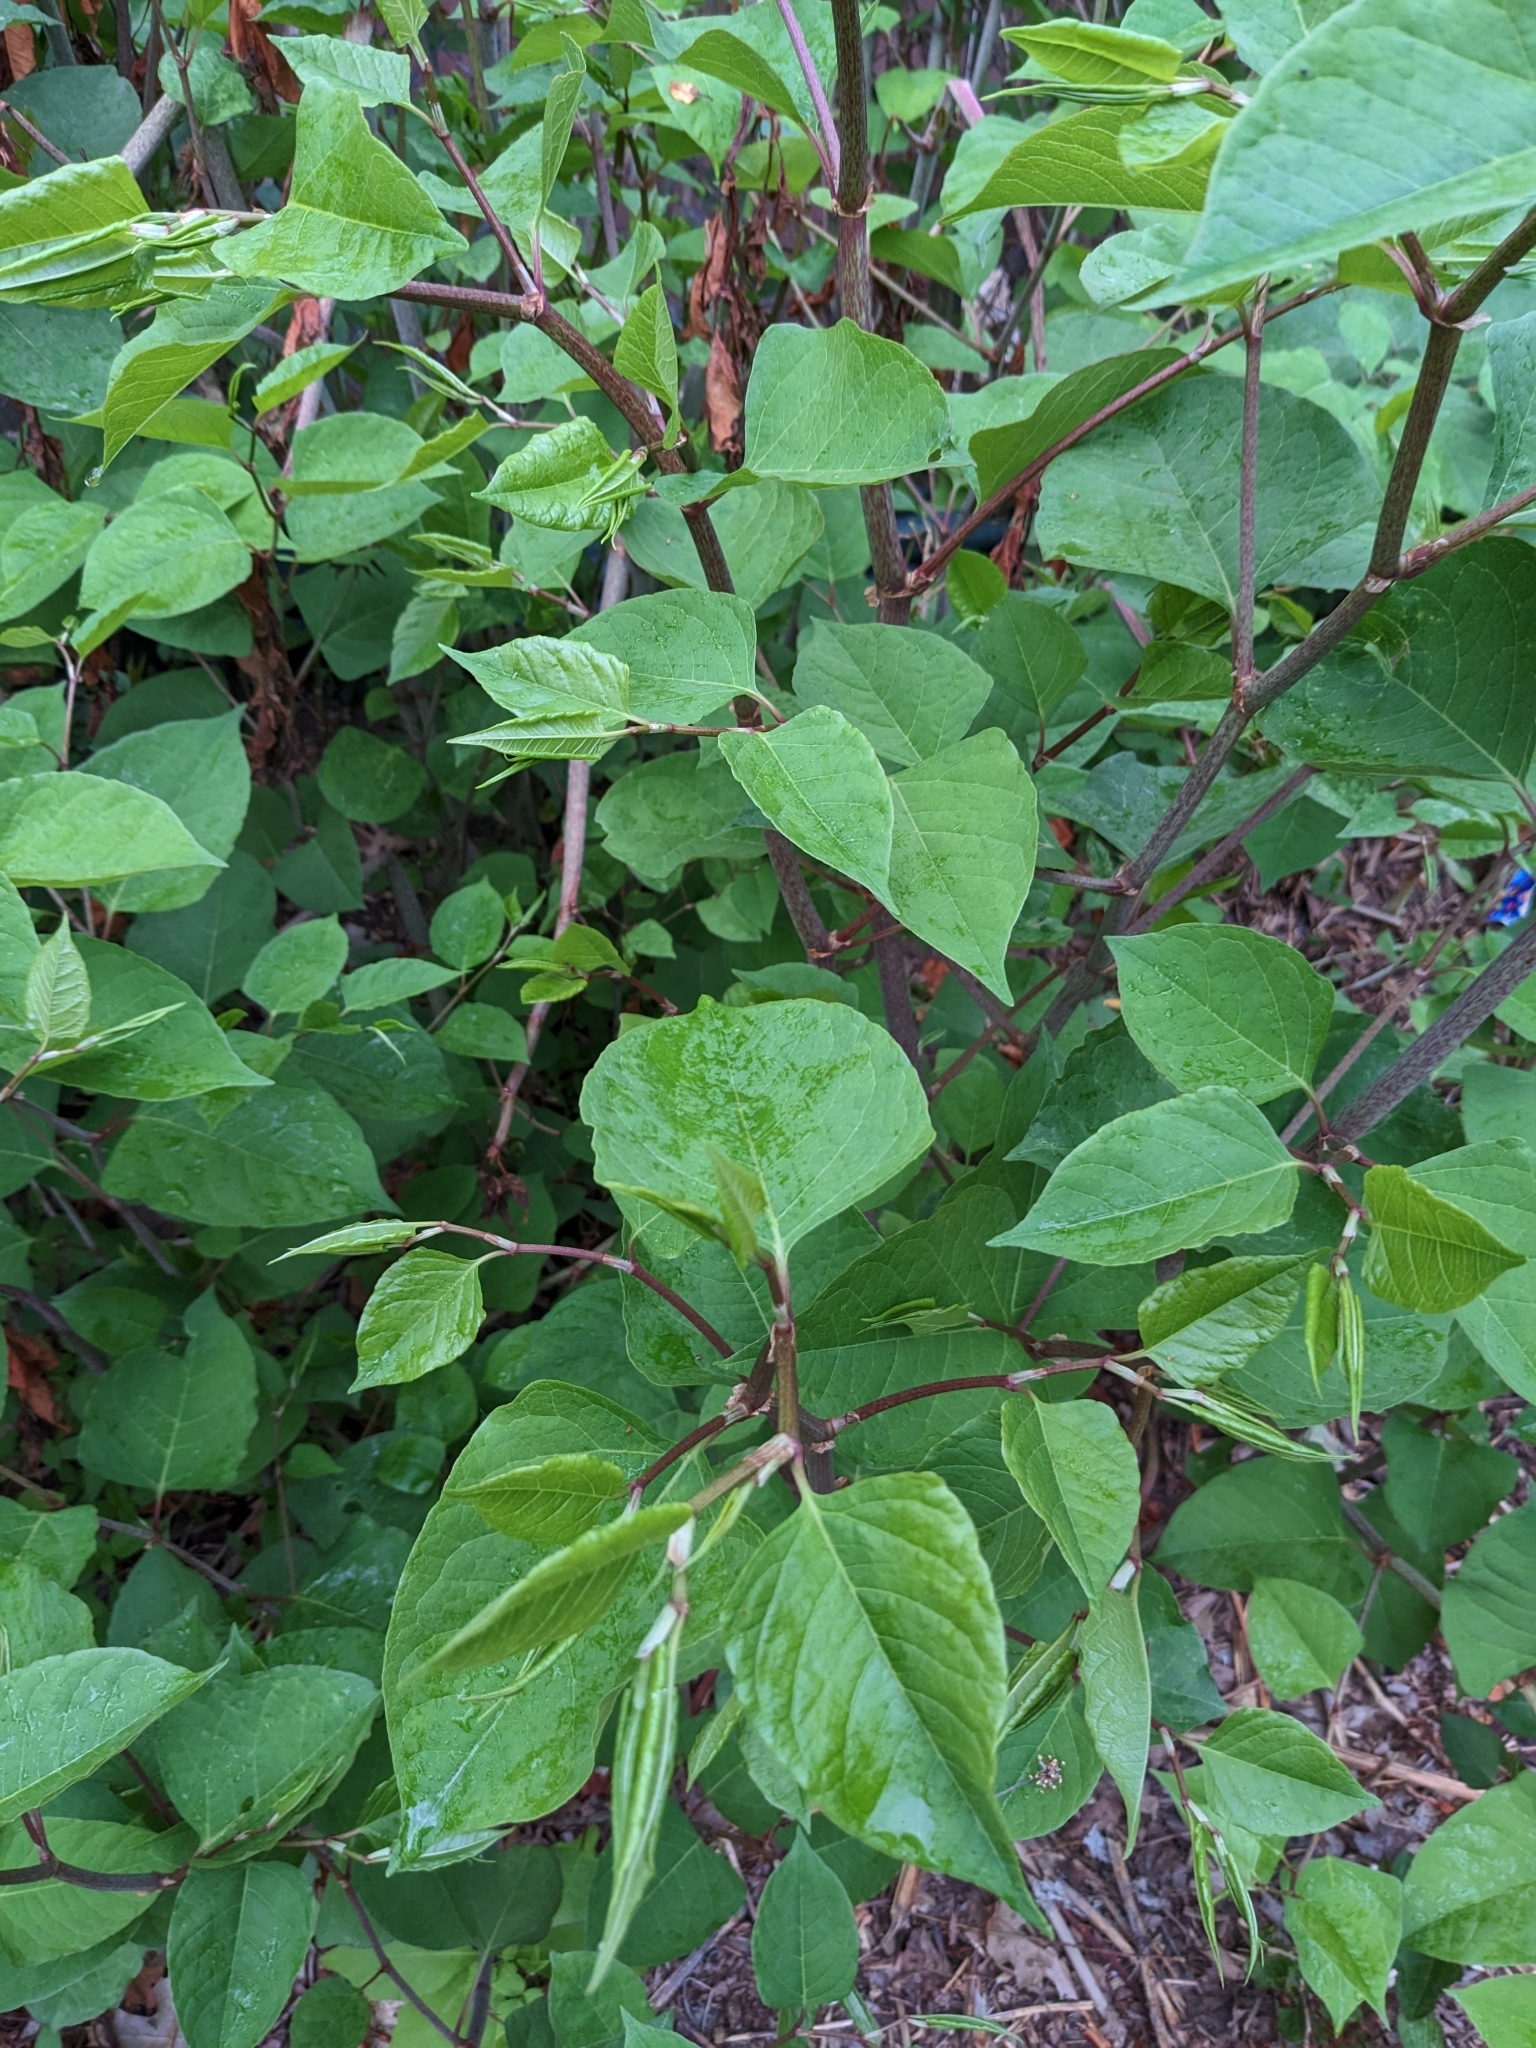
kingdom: Plantae
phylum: Tracheophyta
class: Magnoliopsida
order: Caryophyllales
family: Polygonaceae
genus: Reynoutria
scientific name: Reynoutria japonica
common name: Japanese knotweed
